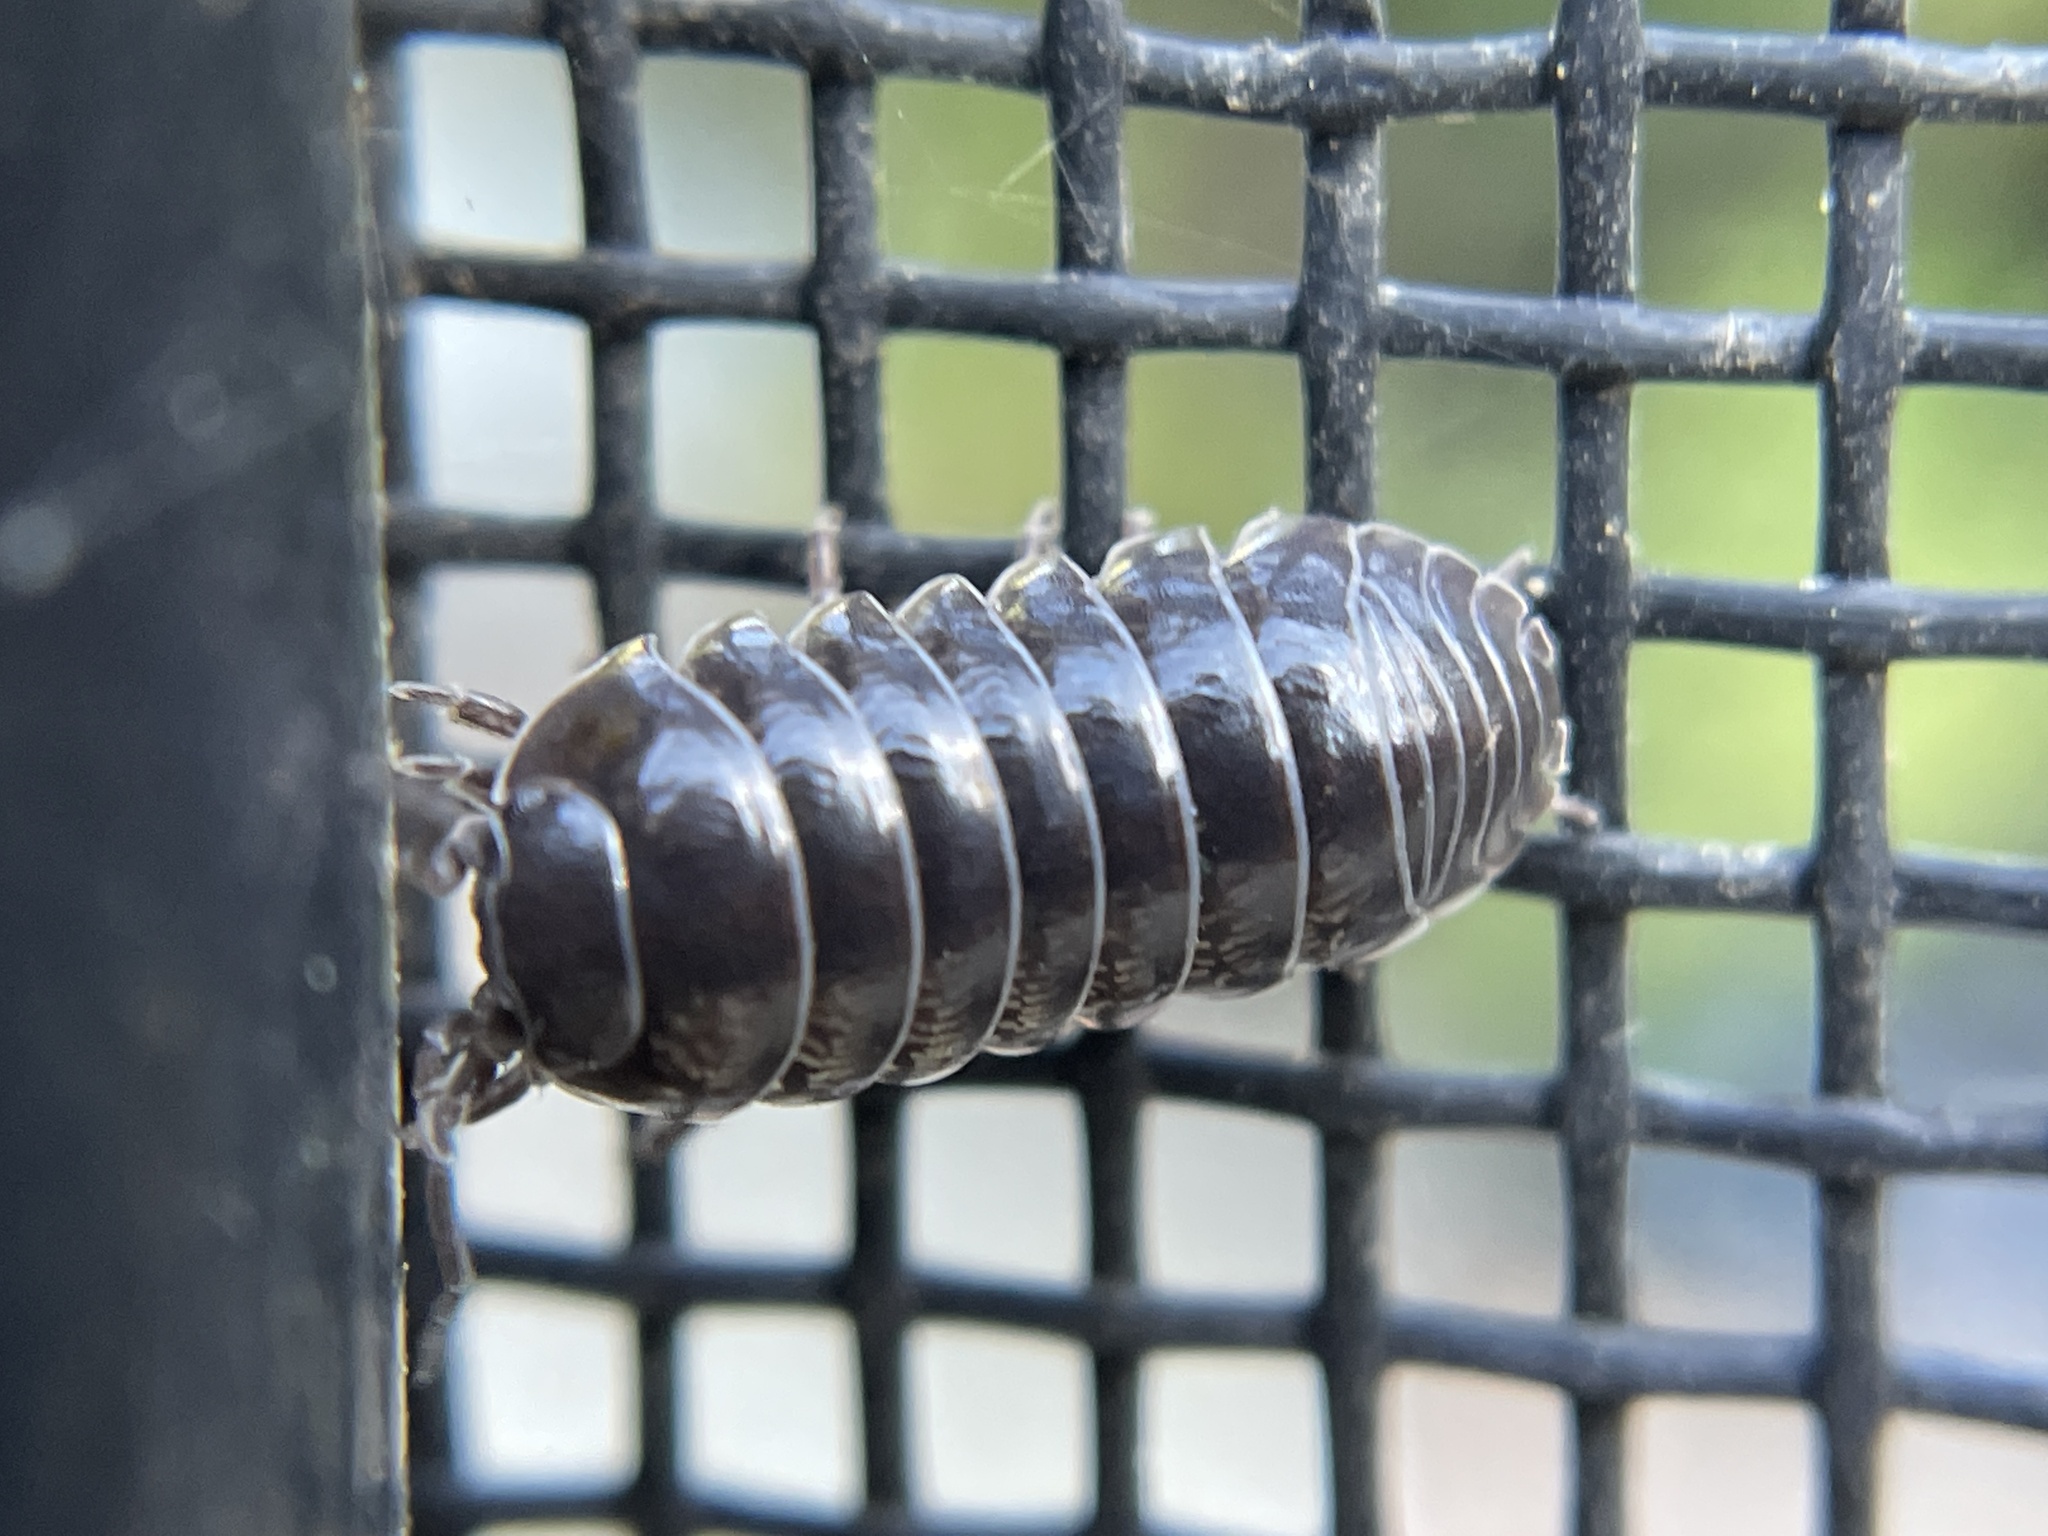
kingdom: Animalia
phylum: Arthropoda
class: Malacostraca
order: Isopoda
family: Armadillidiidae
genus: Armadillidium
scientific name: Armadillidium vulgare
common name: Common pill woodlouse
